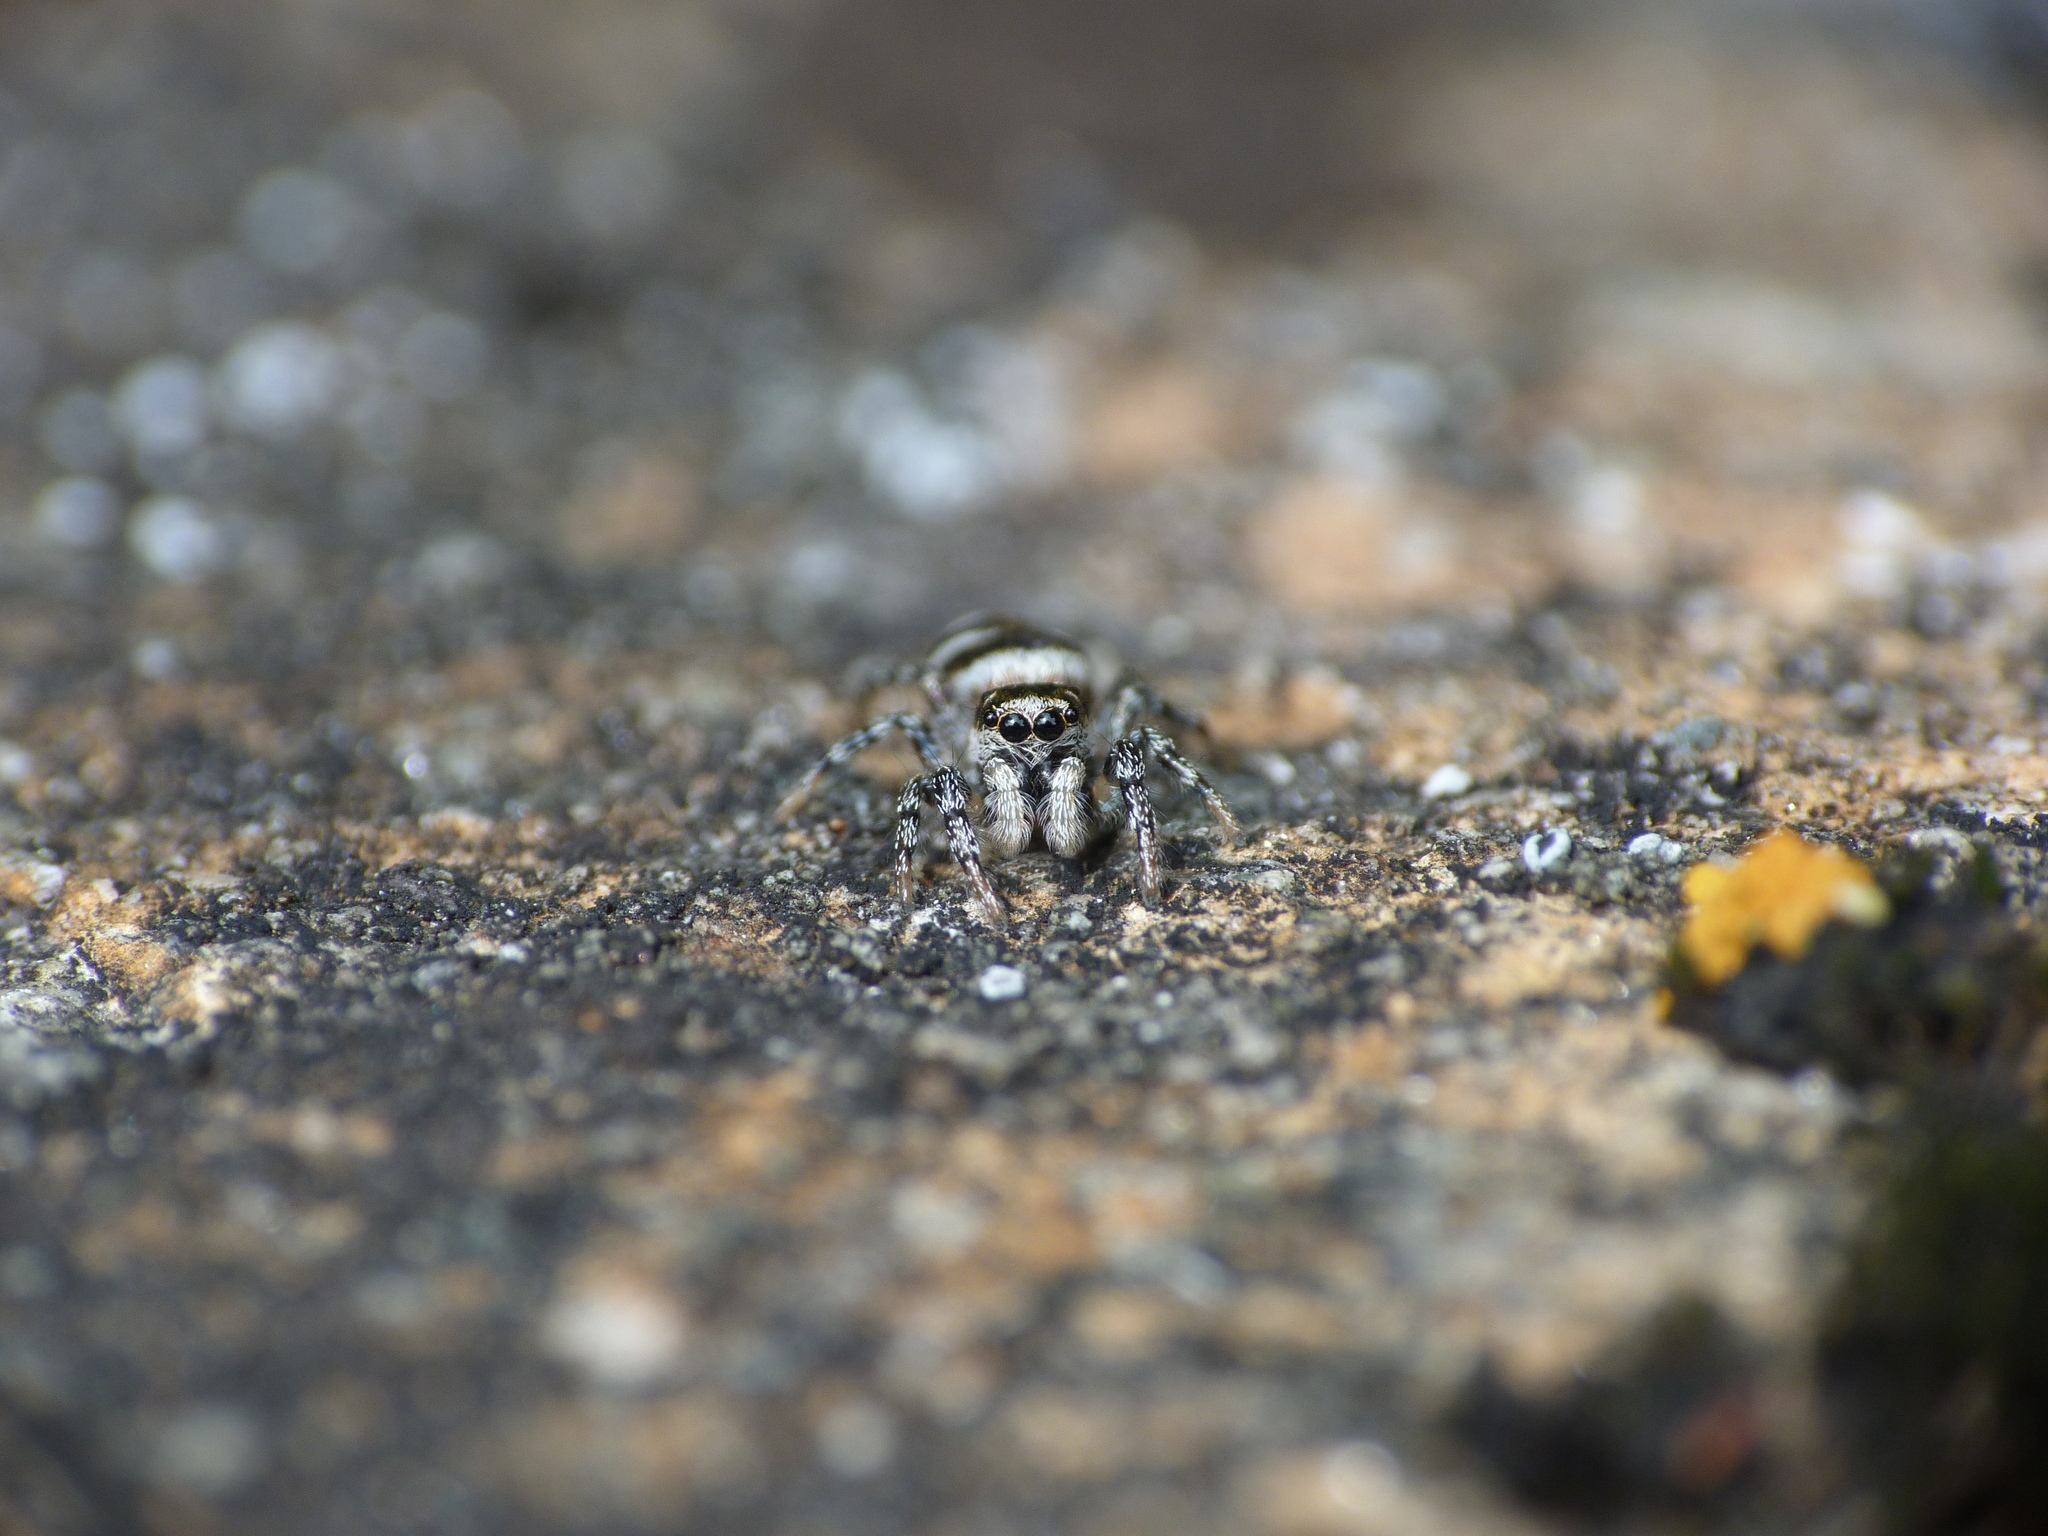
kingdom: Animalia
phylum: Arthropoda
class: Arachnida
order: Araneae
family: Salticidae
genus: Salticus
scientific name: Salticus scenicus
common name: Zebra jumper
